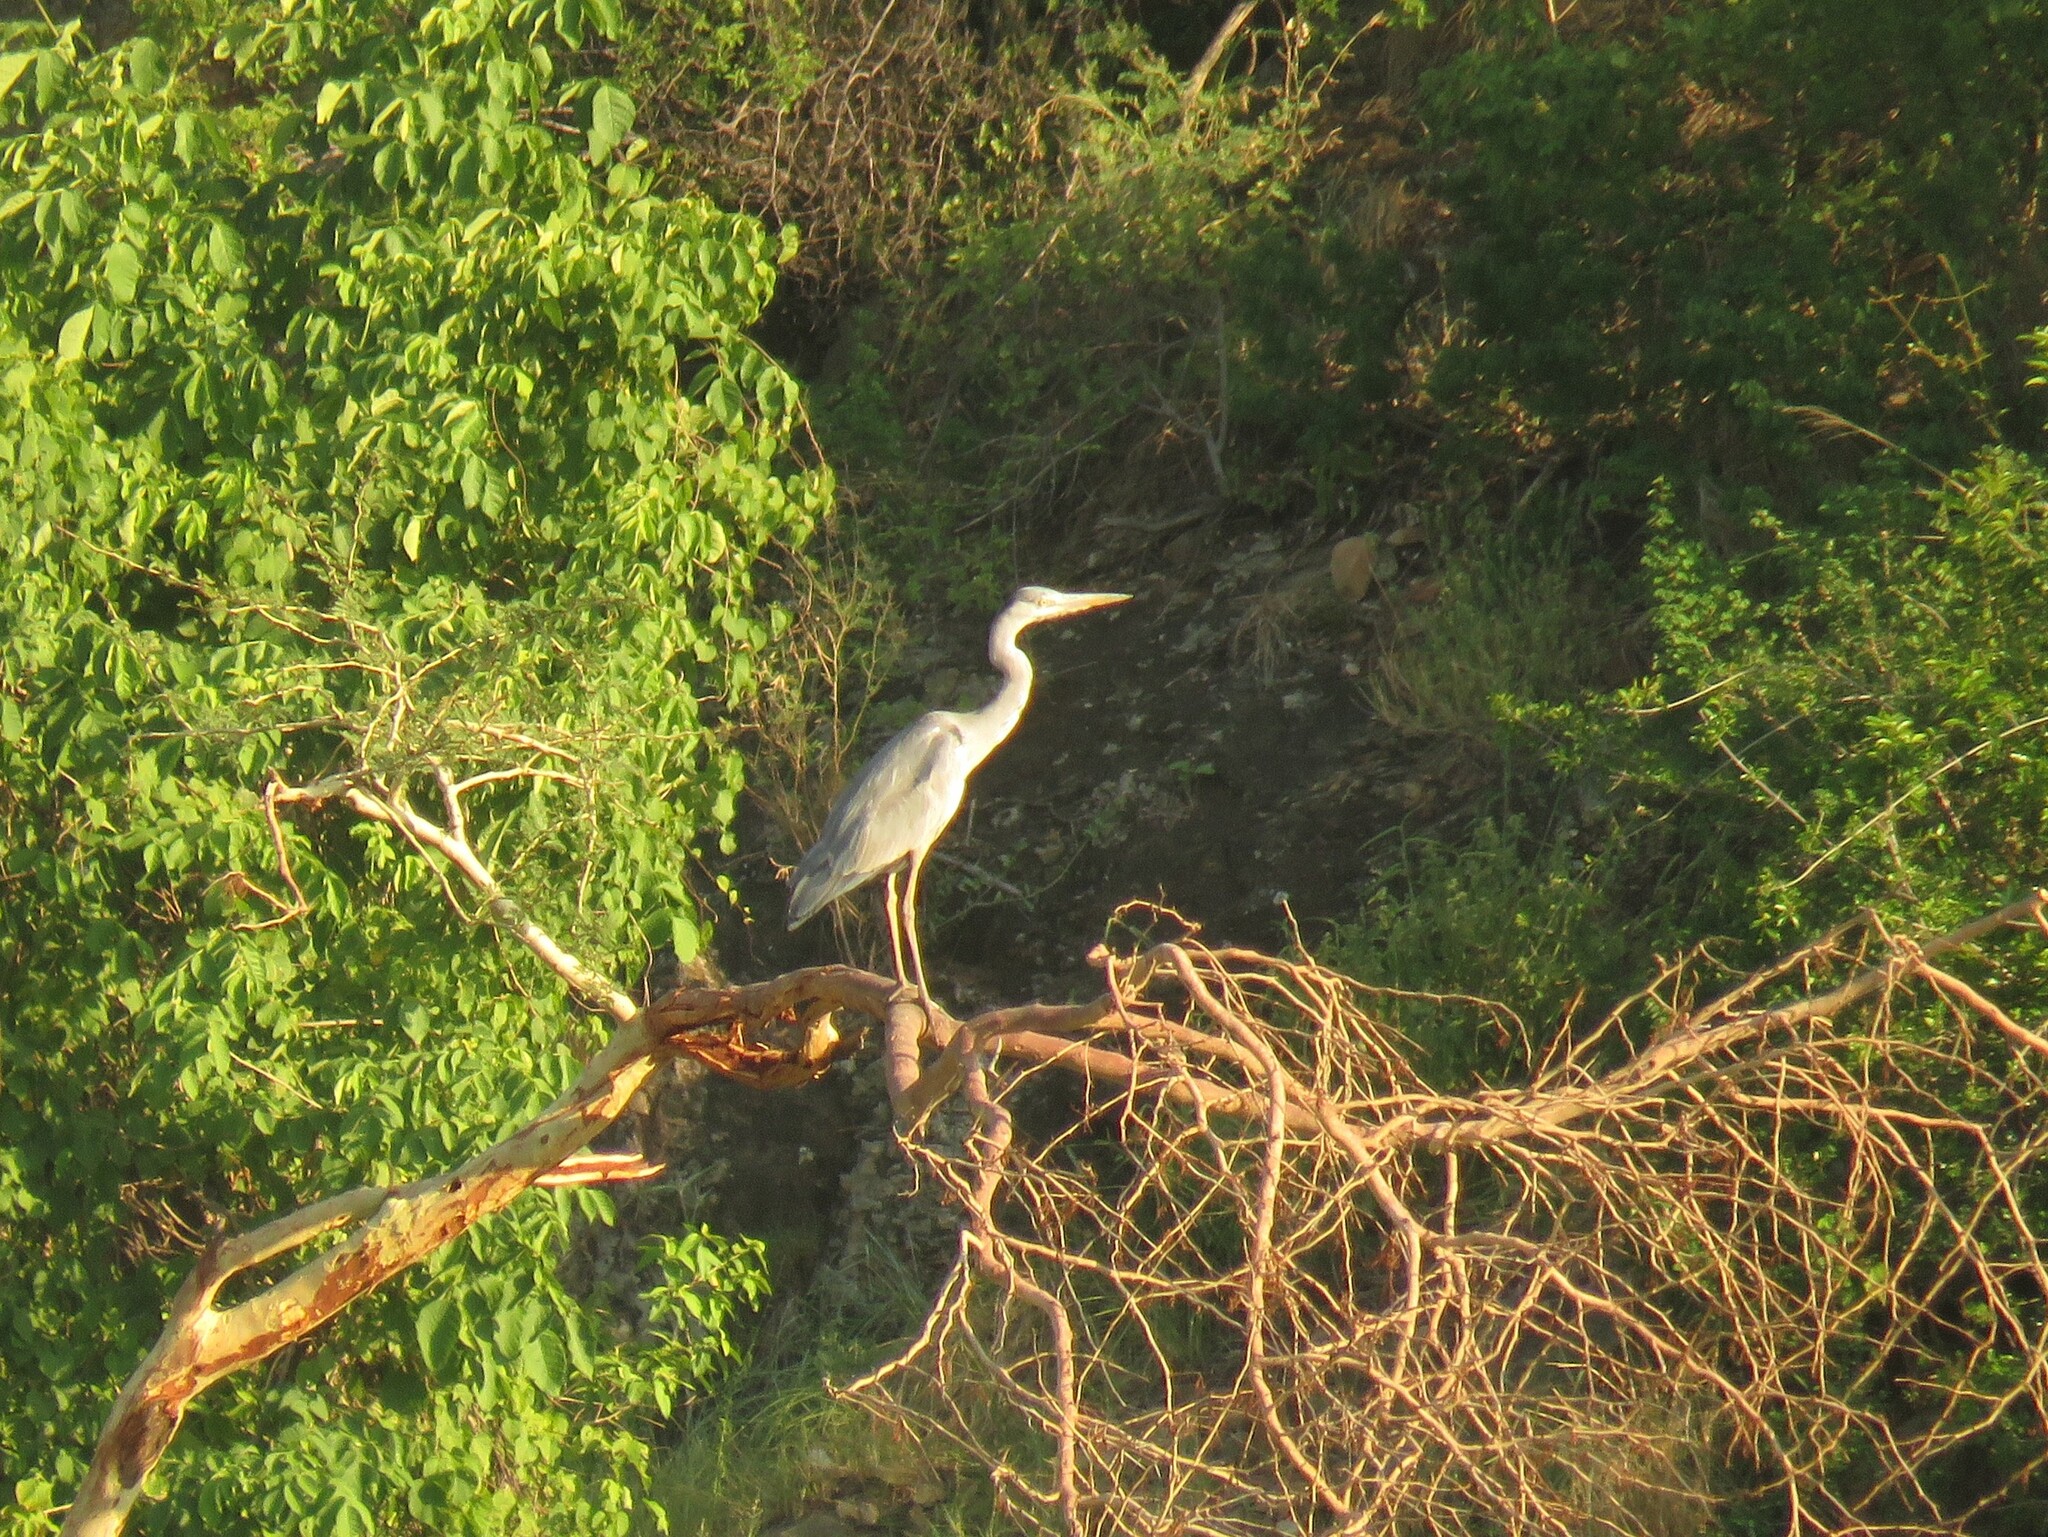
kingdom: Animalia
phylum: Chordata
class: Aves
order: Pelecaniformes
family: Ardeidae
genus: Ardea
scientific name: Ardea cinerea
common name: Grey heron
